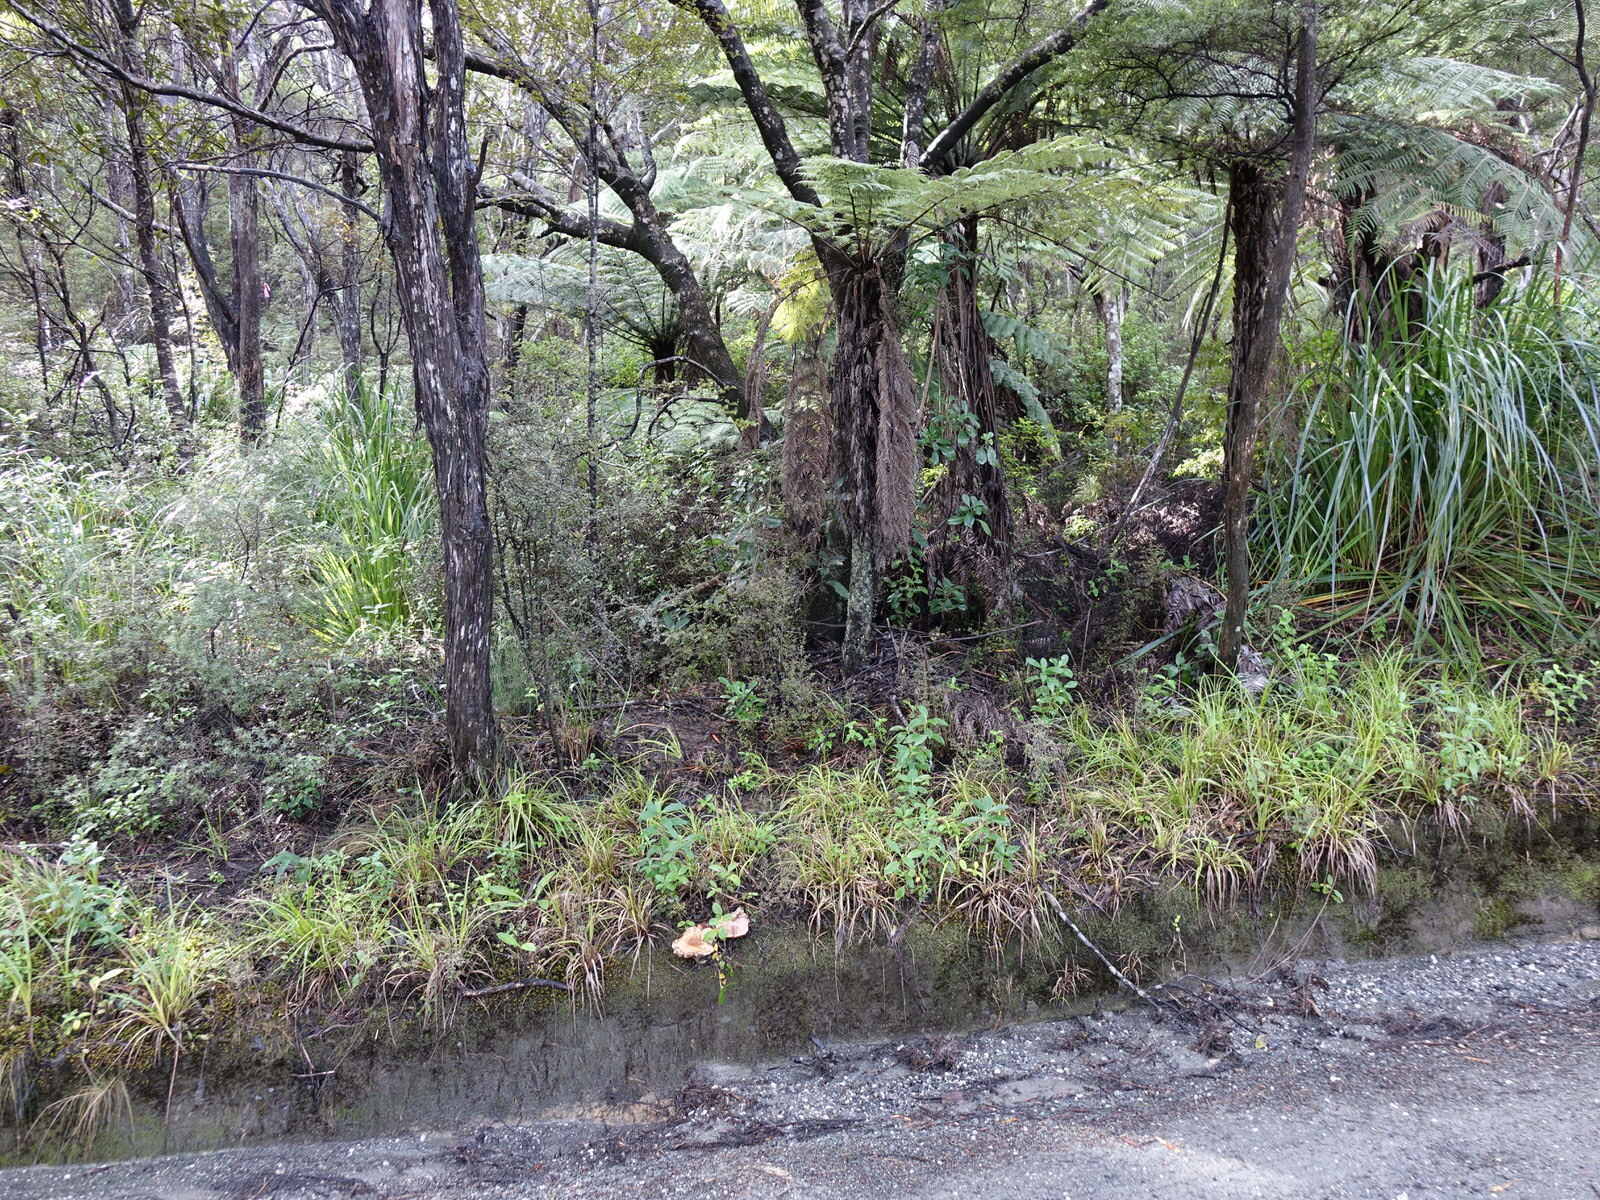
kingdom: Fungi
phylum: Basidiomycota
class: Agaricomycetes
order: Agaricales
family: Hymenogastraceae
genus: Hebeloma
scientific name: Hebeloma victoriense
